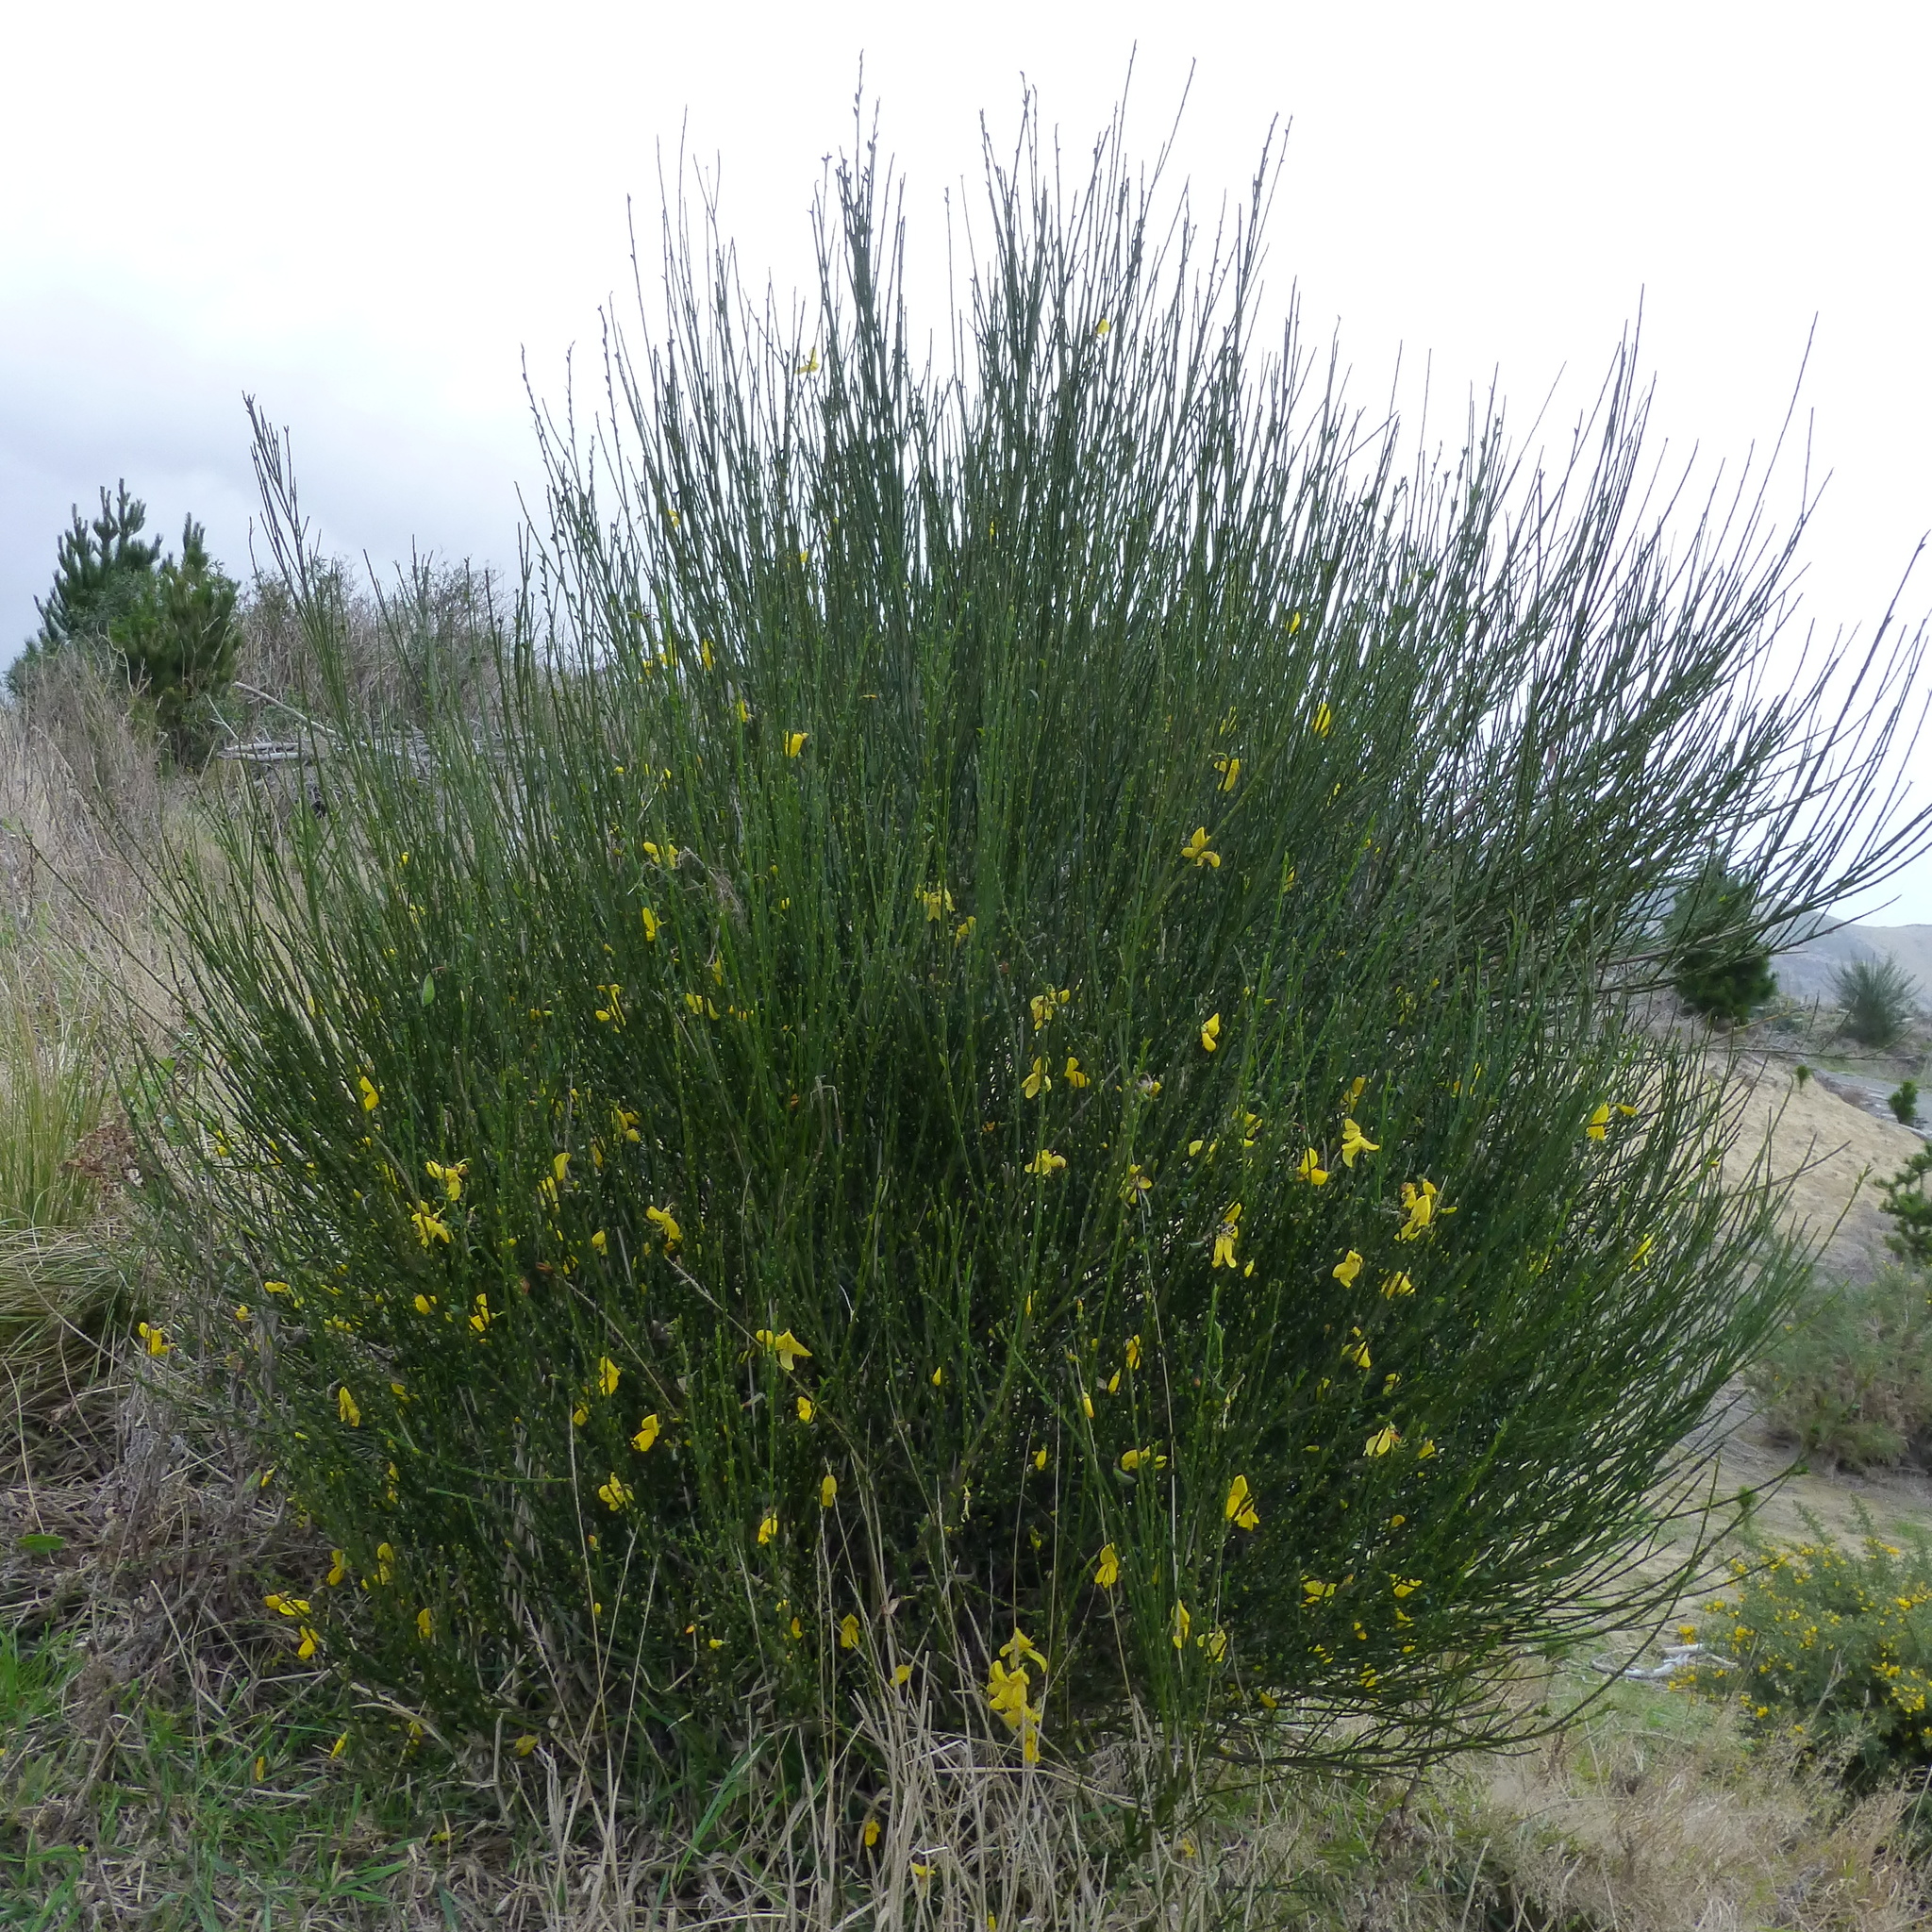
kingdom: Plantae
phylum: Tracheophyta
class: Magnoliopsida
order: Fabales
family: Fabaceae
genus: Cytisus
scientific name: Cytisus scoparius
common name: Scotch broom
